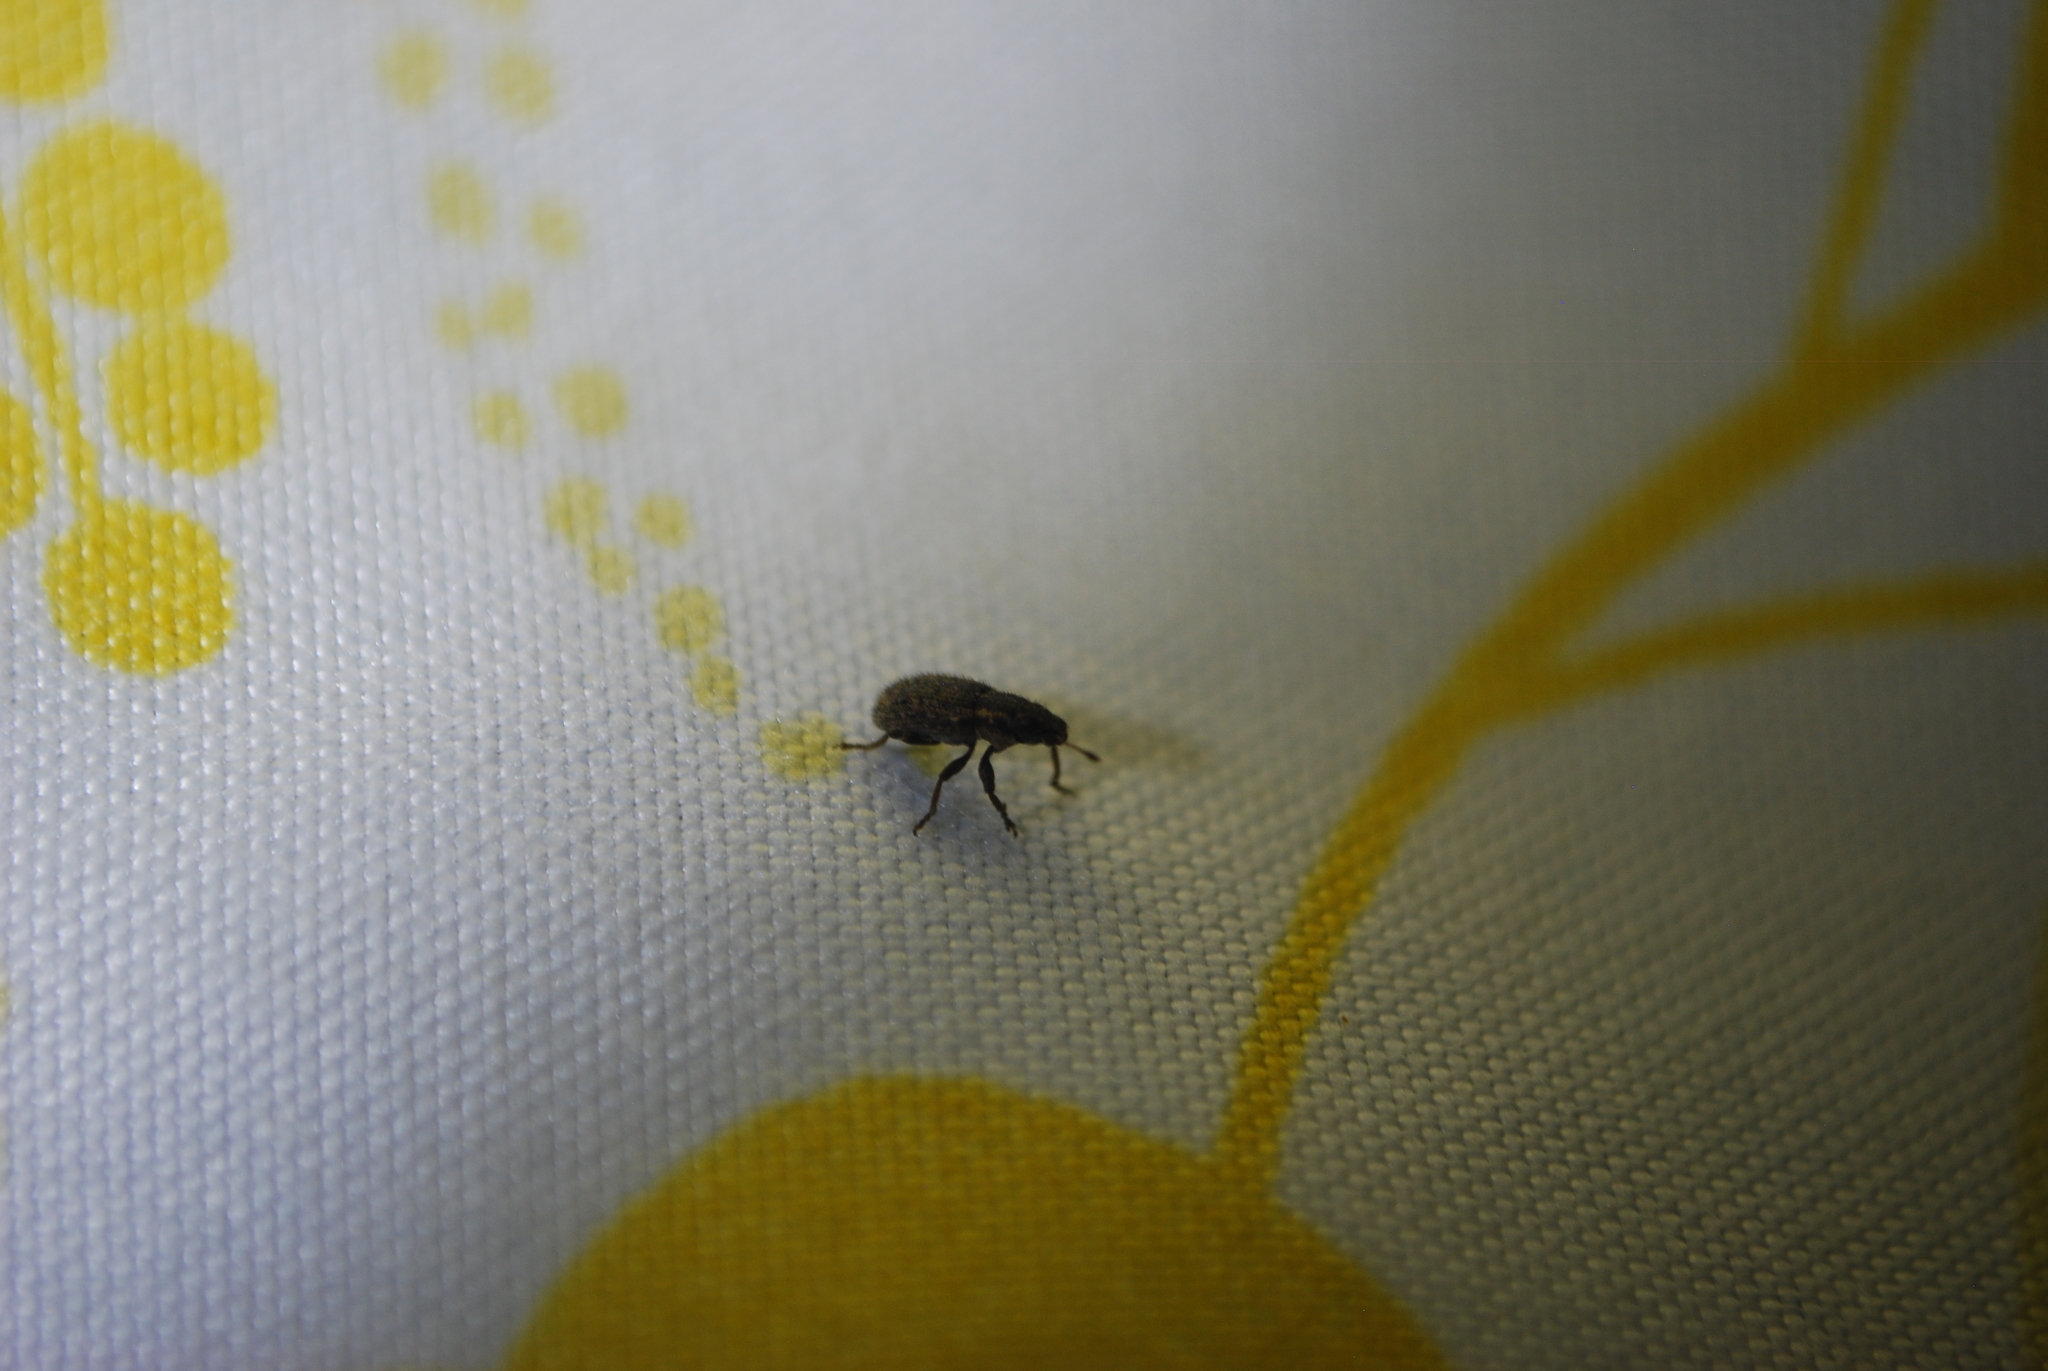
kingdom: Animalia
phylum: Arthropoda
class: Insecta
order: Coleoptera
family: Curculionidae
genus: Sitona
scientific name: Sitona hispidulus
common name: Clover weevil
